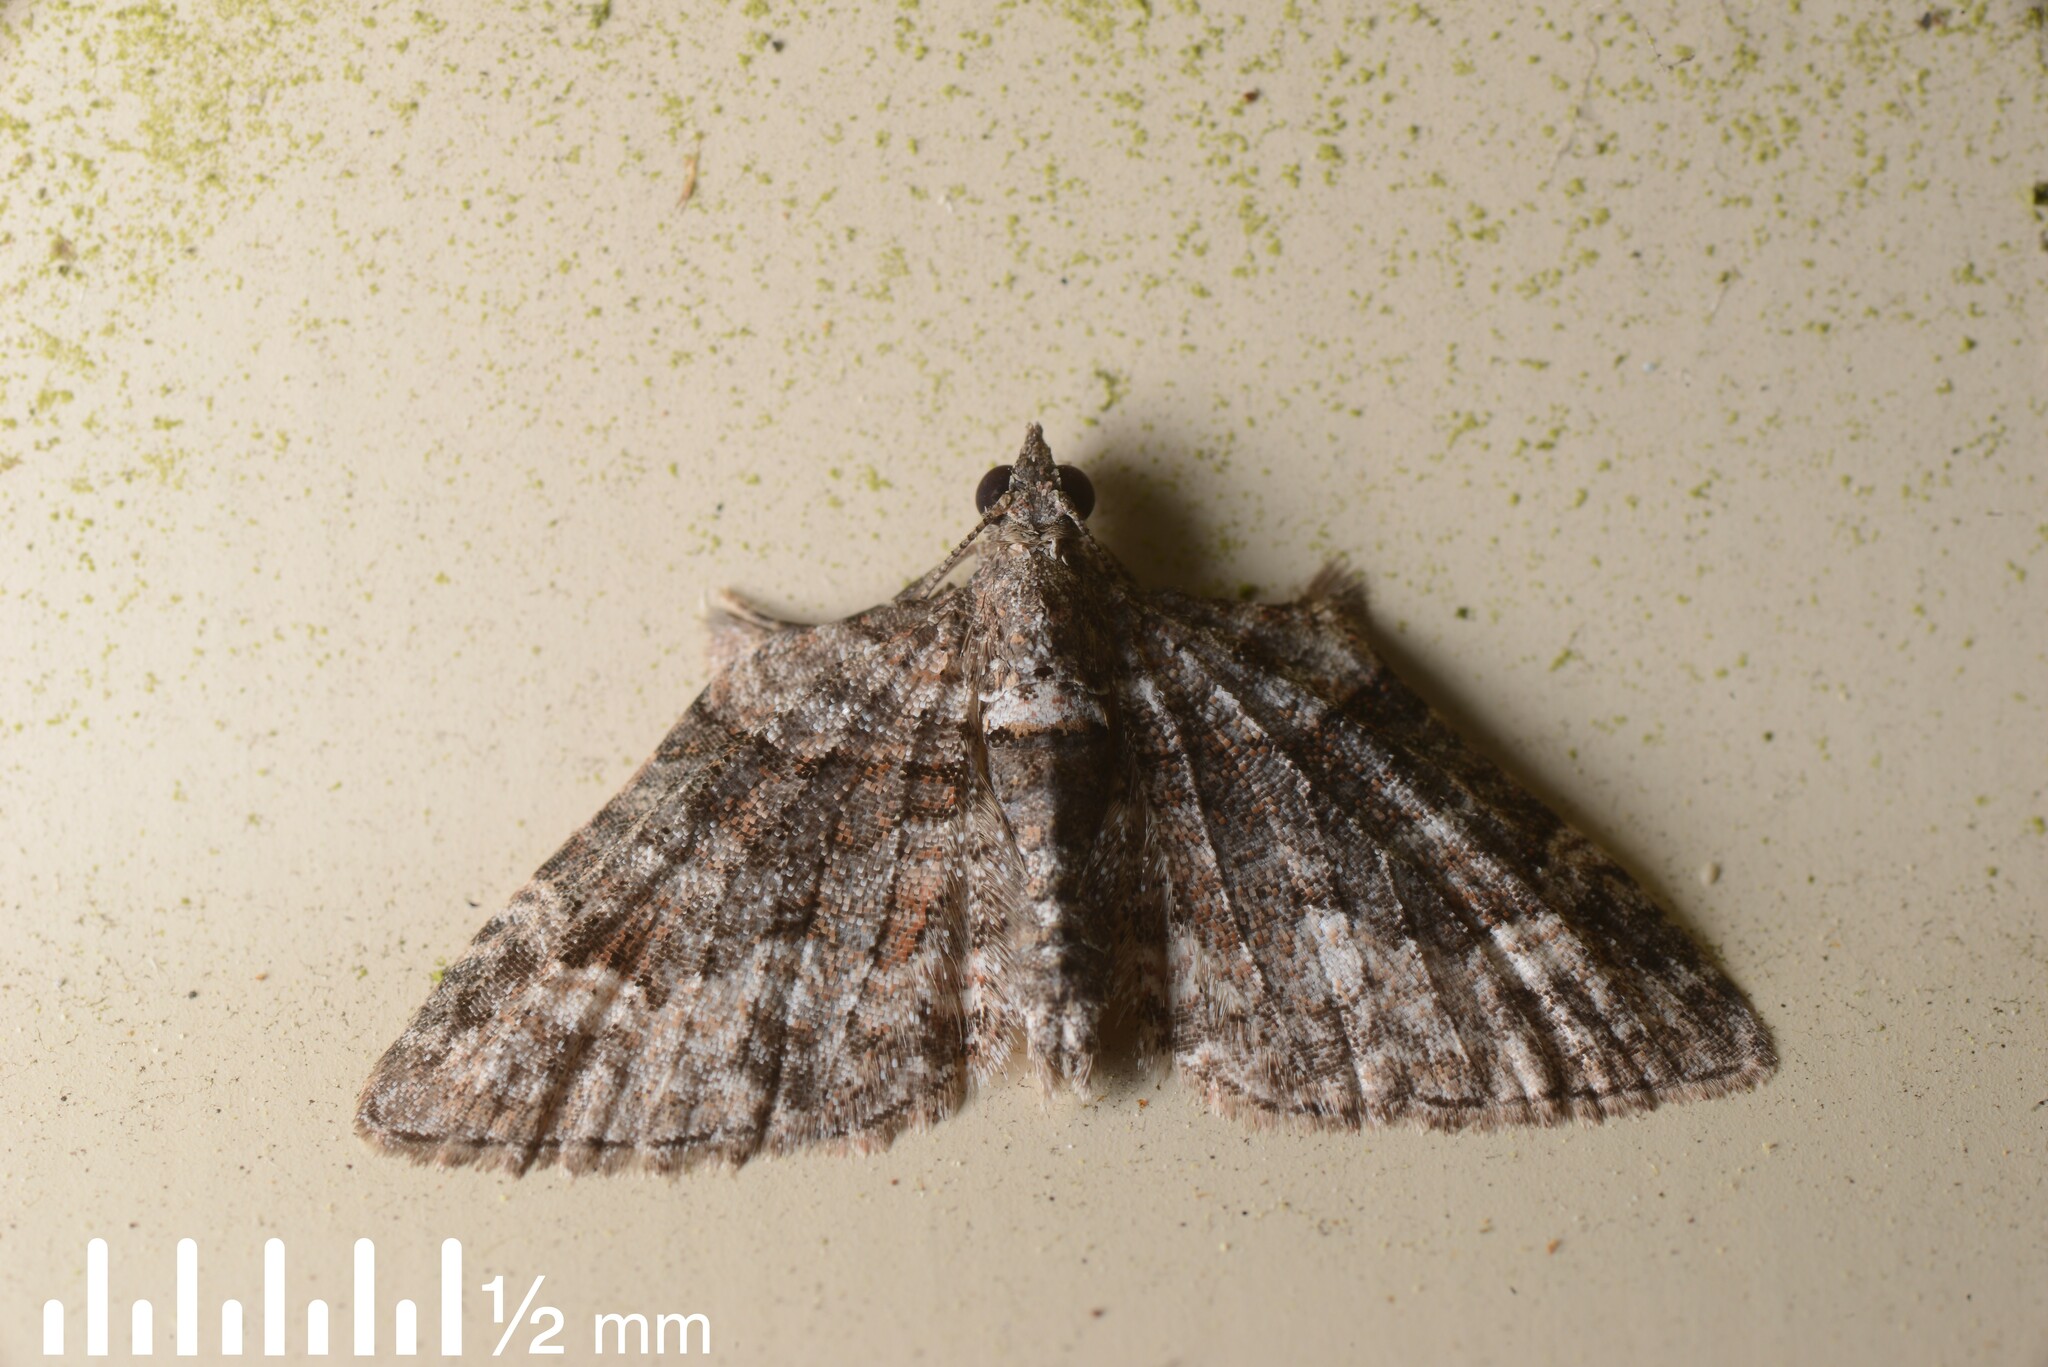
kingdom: Animalia
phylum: Arthropoda
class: Insecta
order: Lepidoptera
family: Geometridae
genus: Phrissogonus
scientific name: Phrissogonus laticostata
